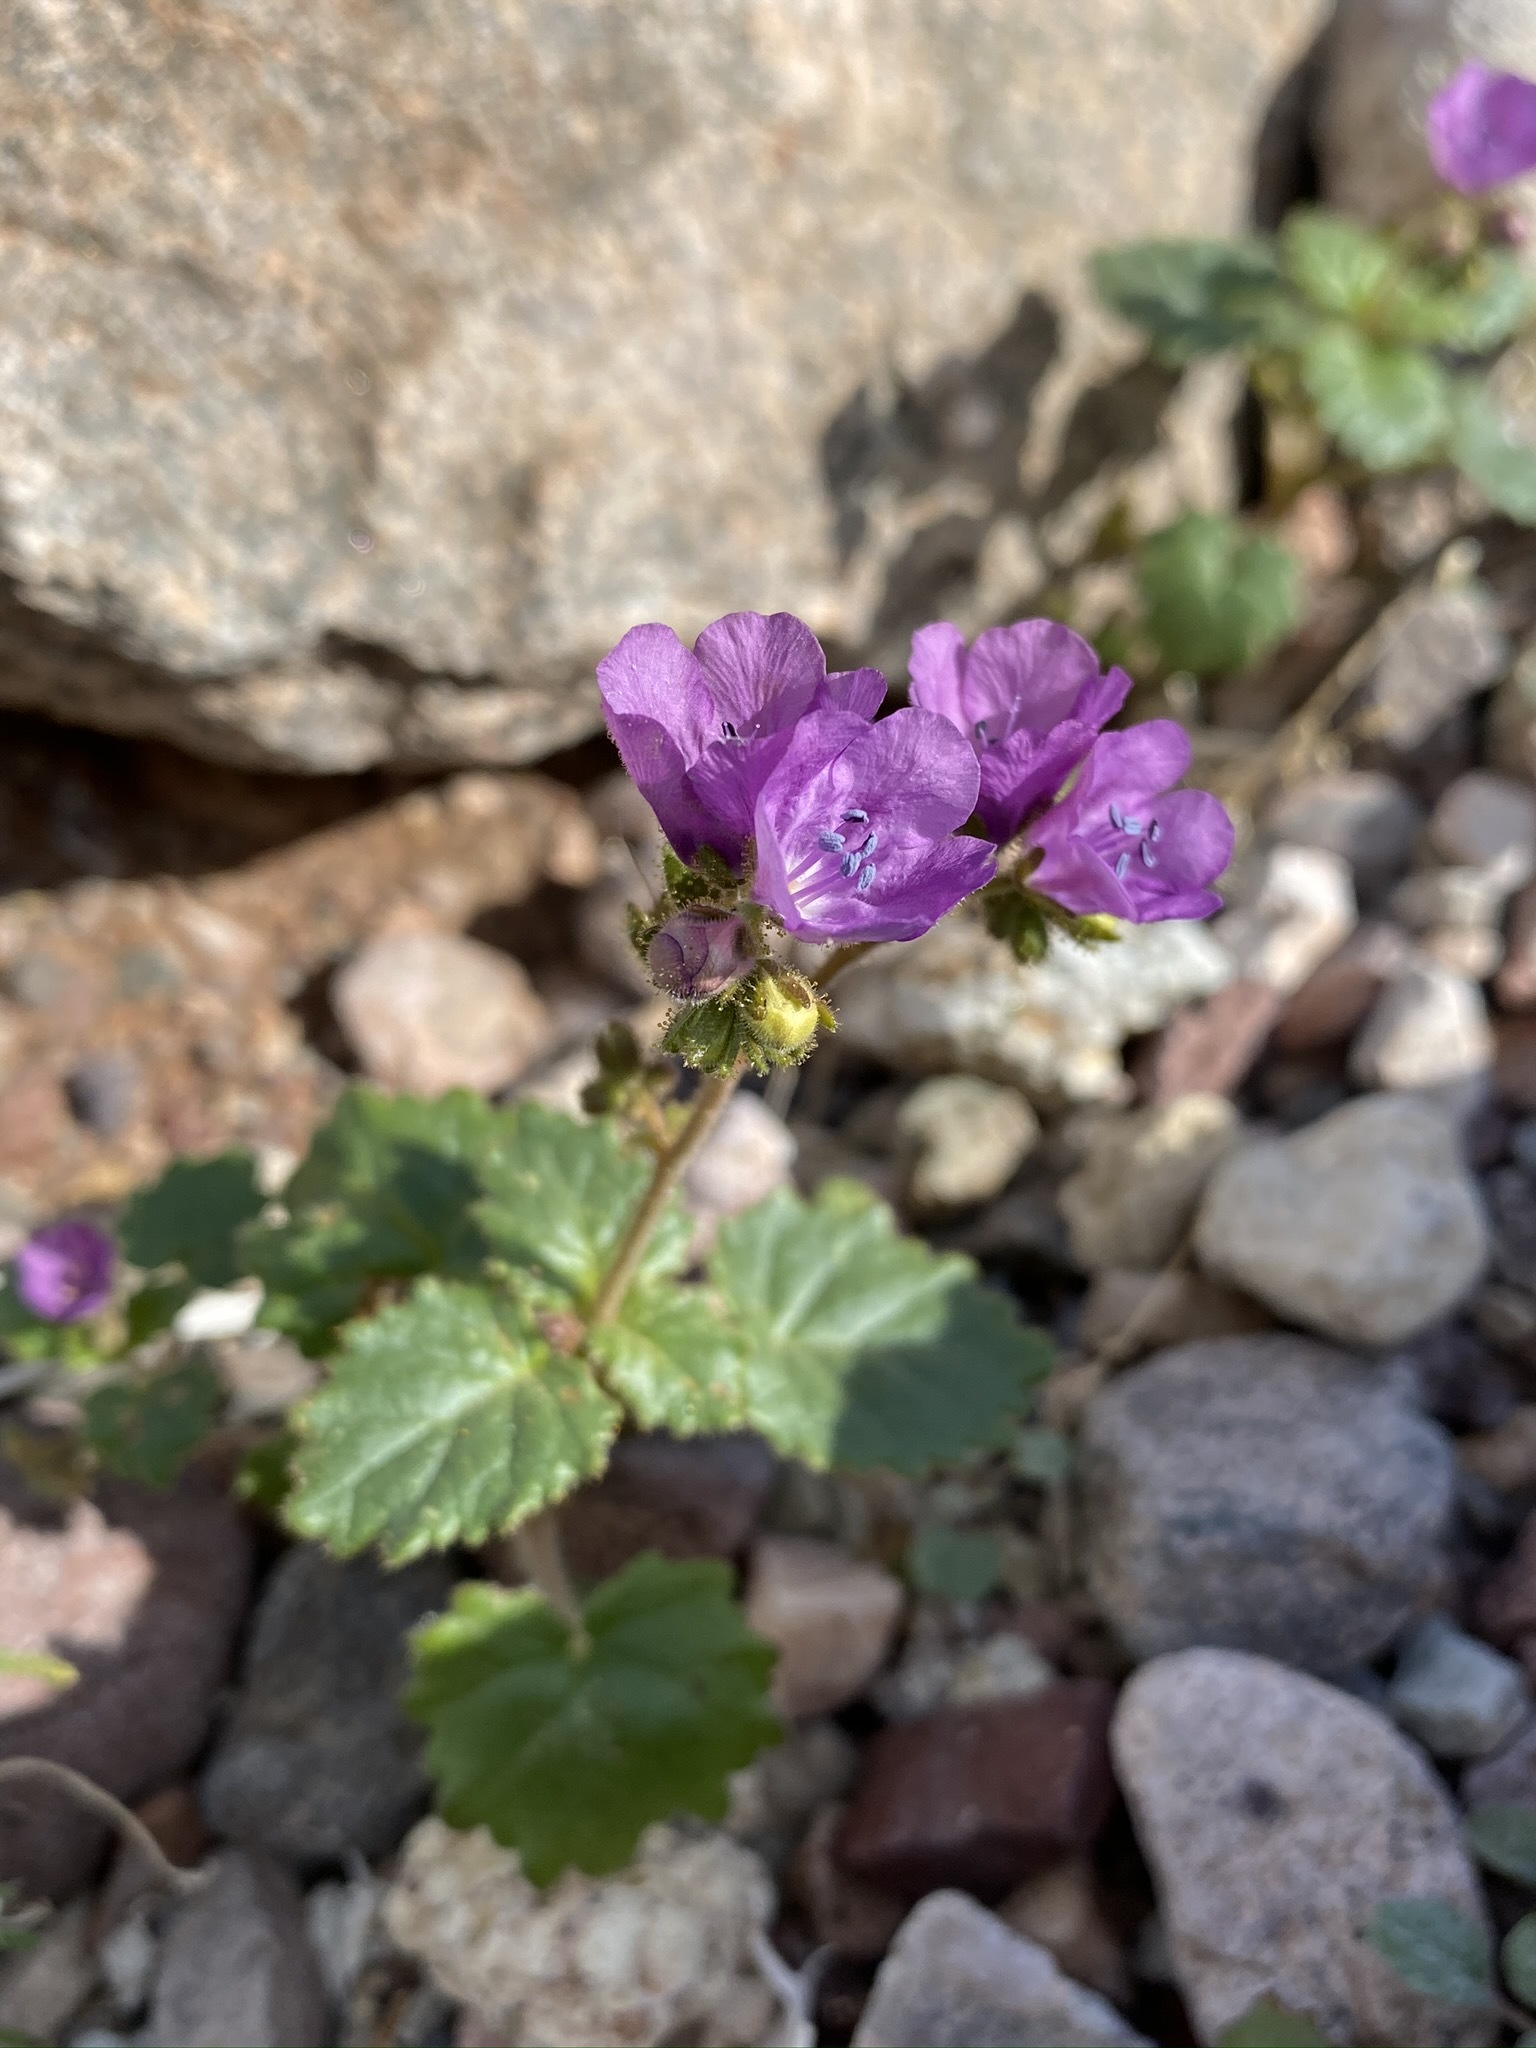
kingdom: Plantae
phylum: Tracheophyta
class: Magnoliopsida
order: Boraginales
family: Hydrophyllaceae
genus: Phacelia
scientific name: Phacelia calthifolia
